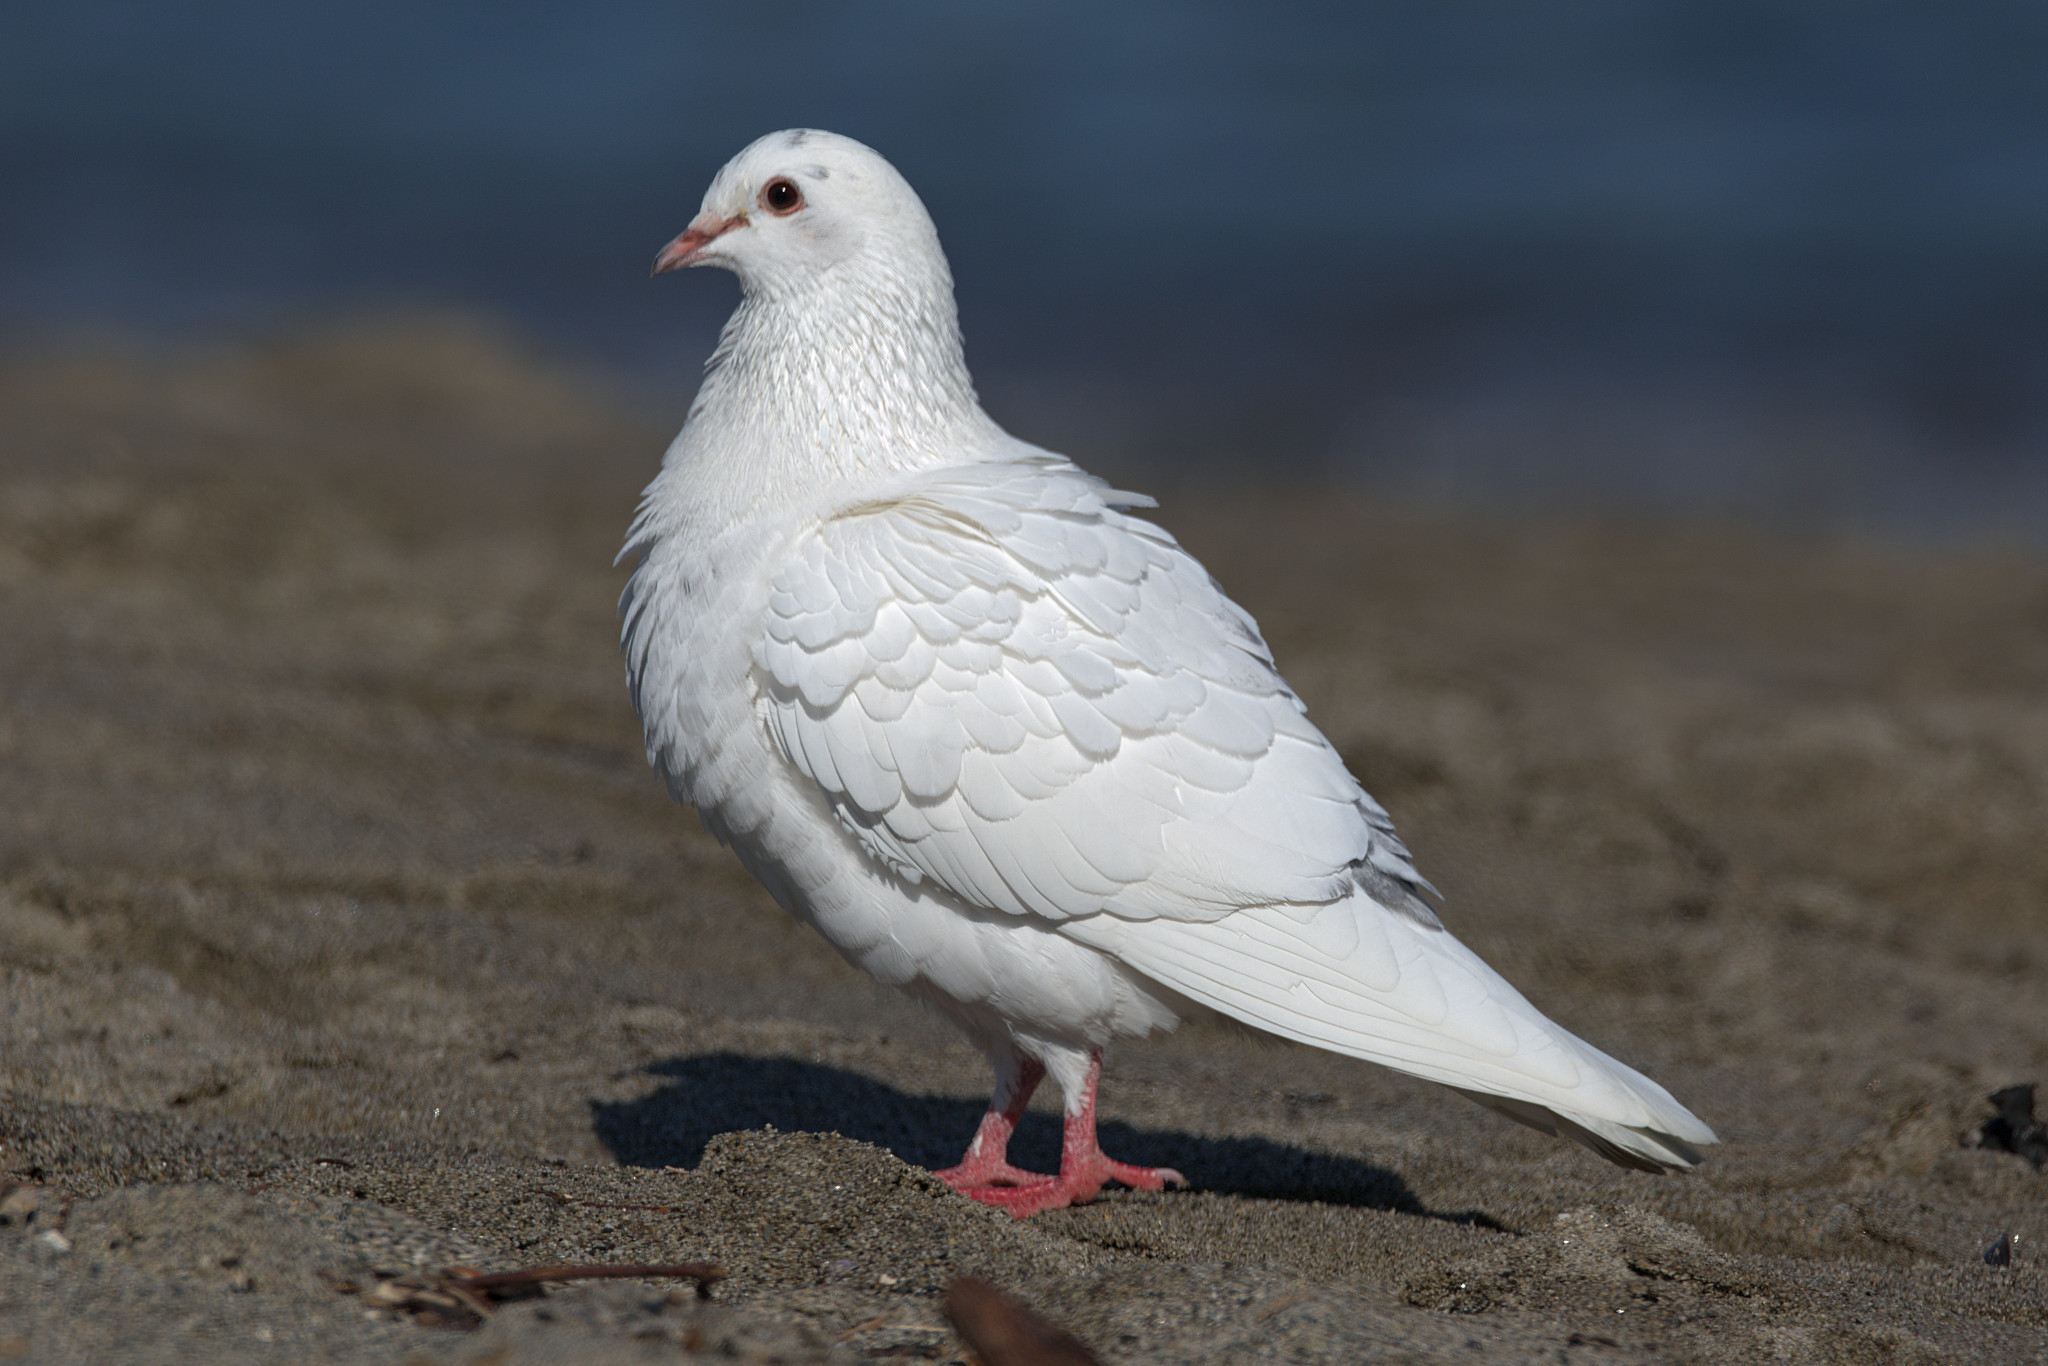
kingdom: Animalia
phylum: Chordata
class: Aves
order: Columbiformes
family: Columbidae
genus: Columba
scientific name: Columba livia
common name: Rock pigeon
